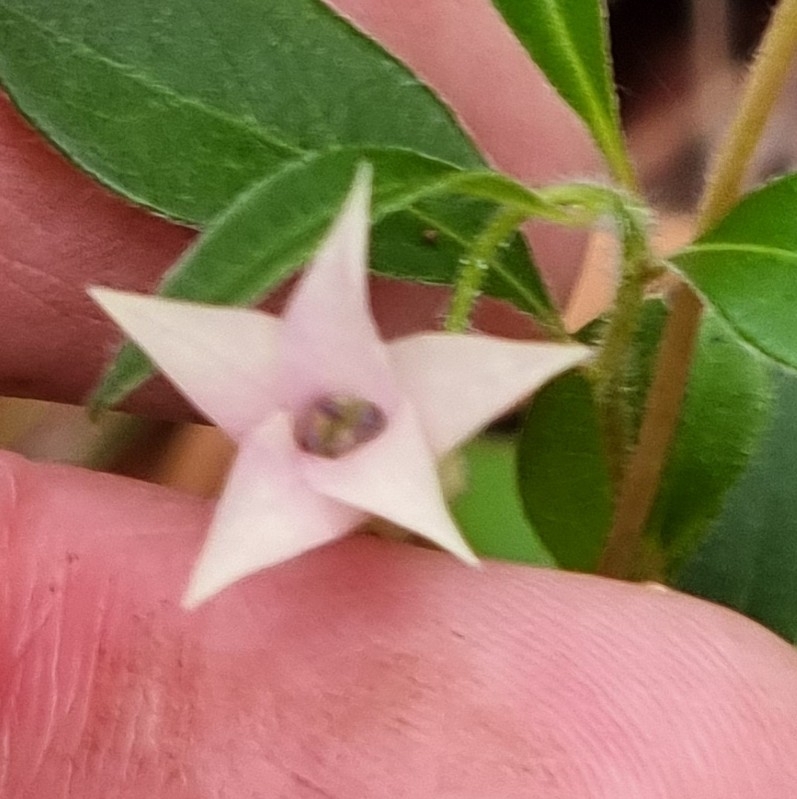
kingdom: Plantae
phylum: Tracheophyta
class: Magnoliopsida
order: Apiales
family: Pittosporaceae
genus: Billardiera
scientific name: Billardiera scandens
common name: Apple-berry
